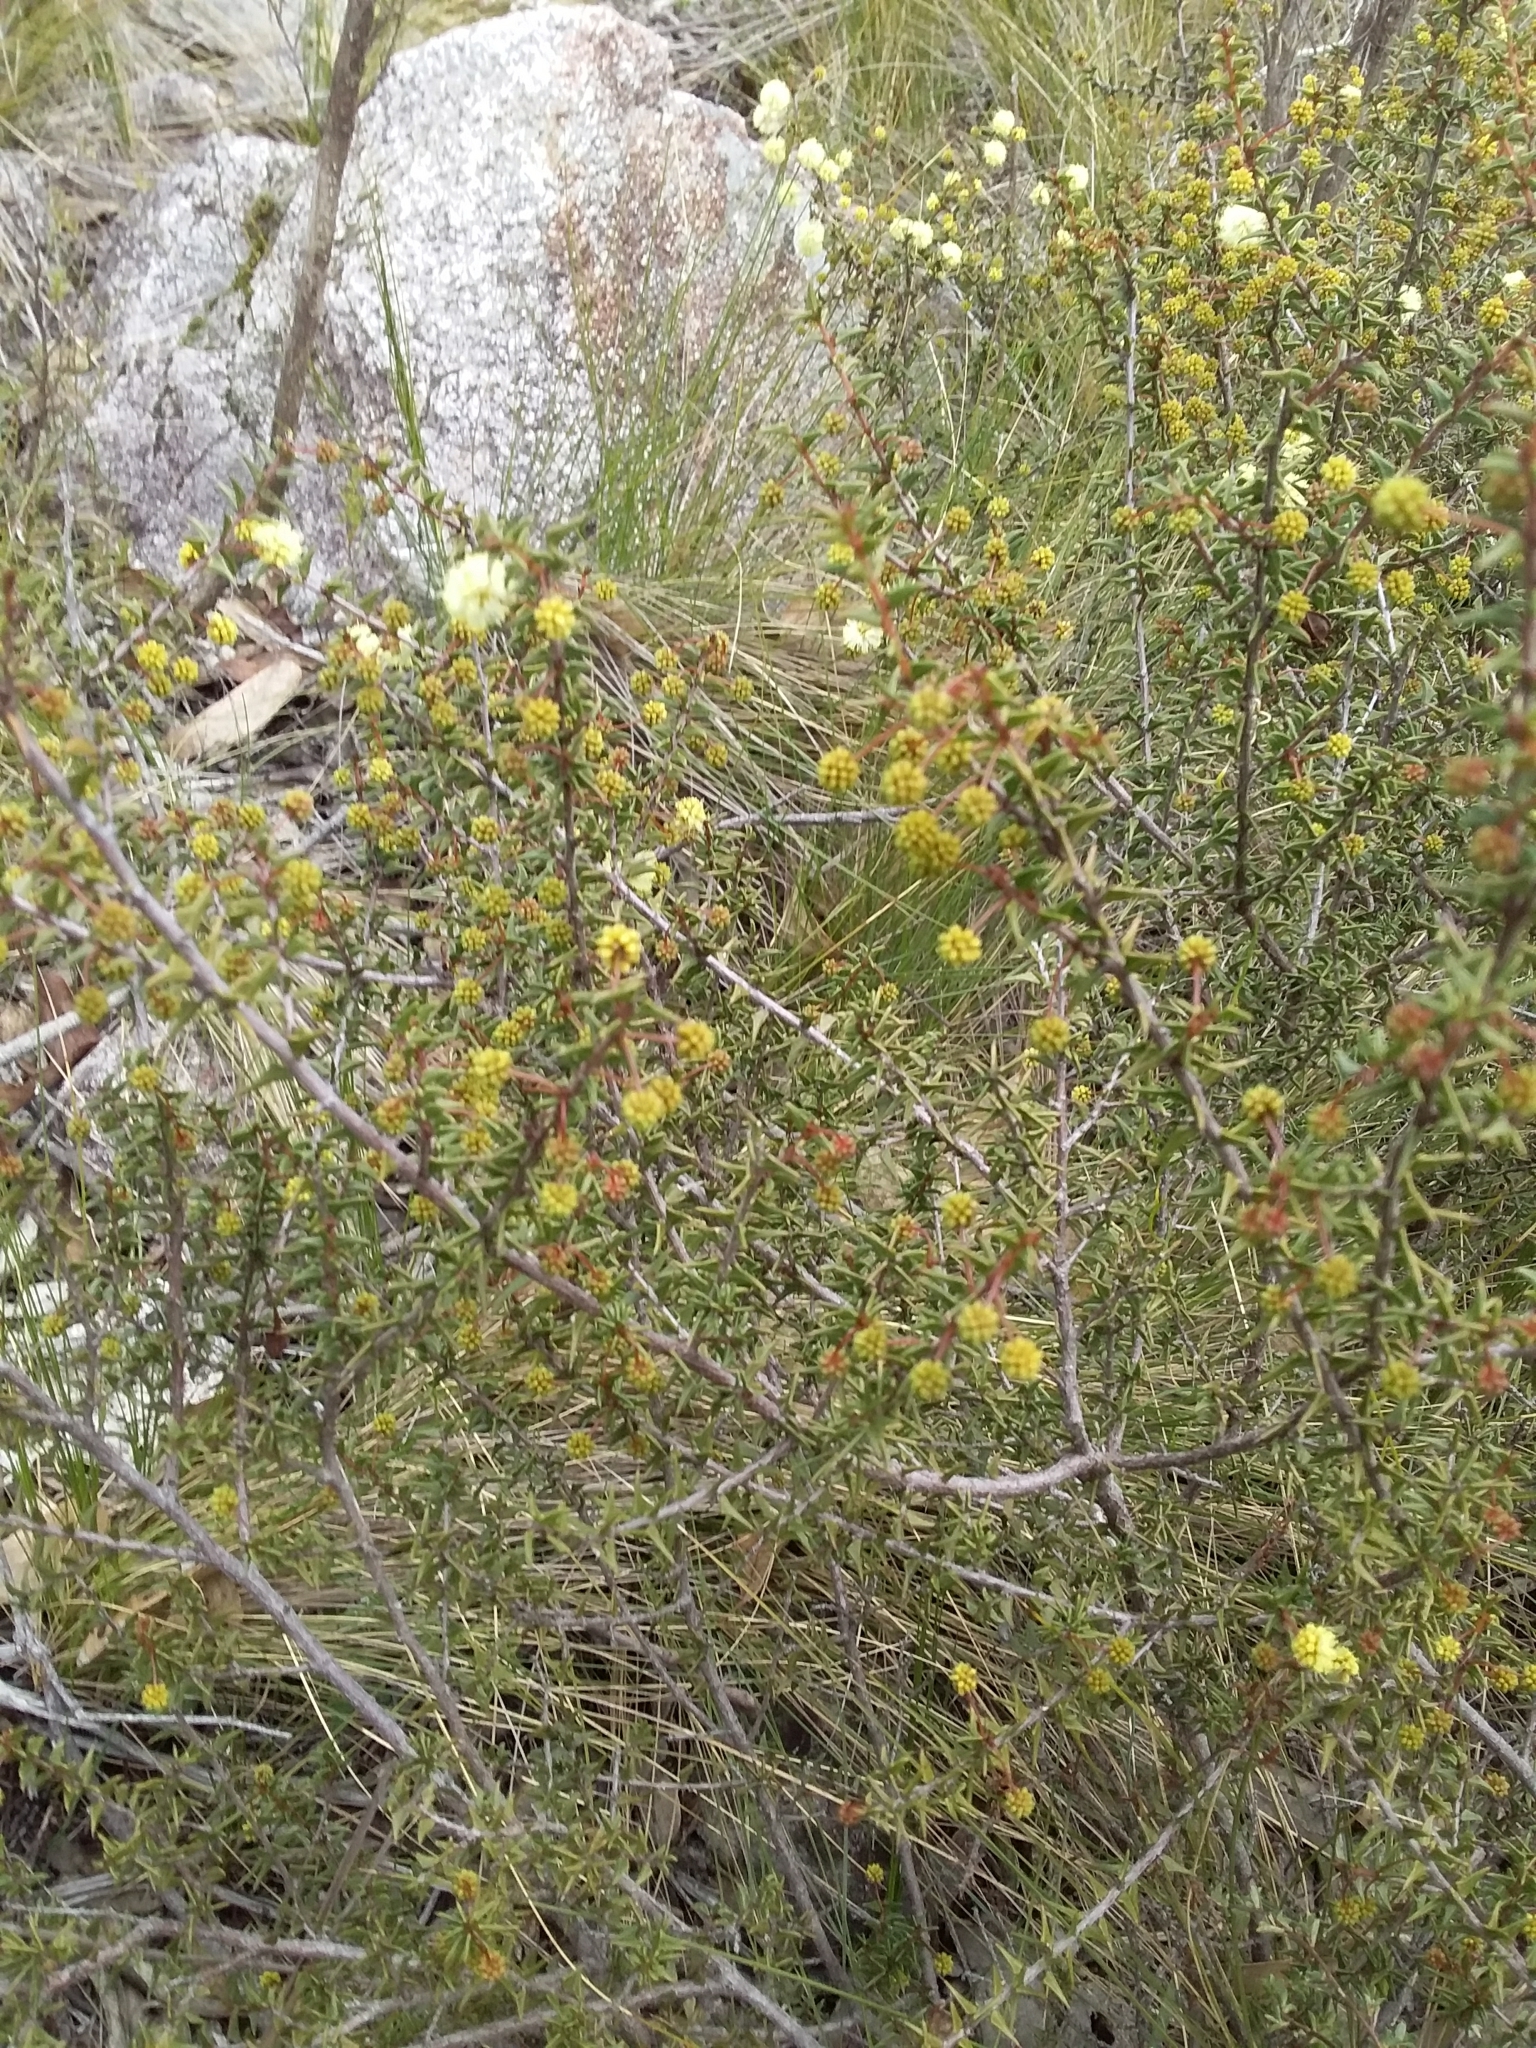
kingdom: Plantae
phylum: Tracheophyta
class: Magnoliopsida
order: Fabales
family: Fabaceae
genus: Acacia
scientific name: Acacia gunnii
